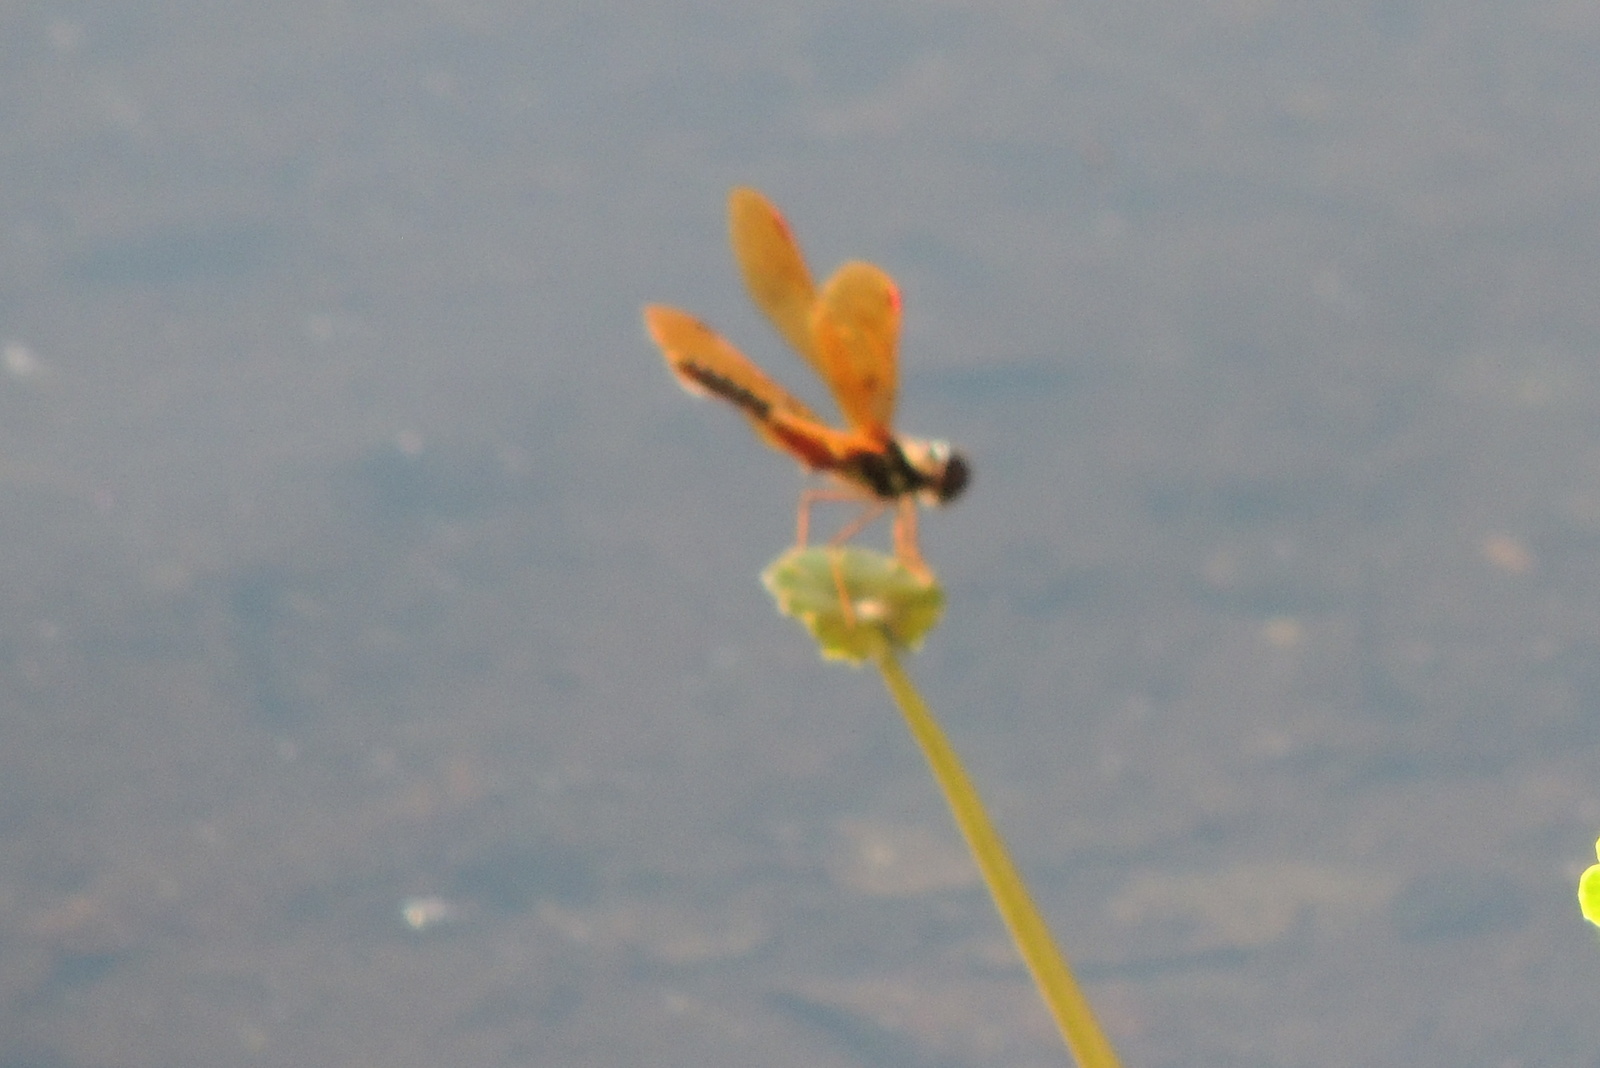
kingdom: Animalia
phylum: Arthropoda
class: Insecta
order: Odonata
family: Libellulidae
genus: Perithemis
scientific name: Perithemis tenera
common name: Eastern amberwing
